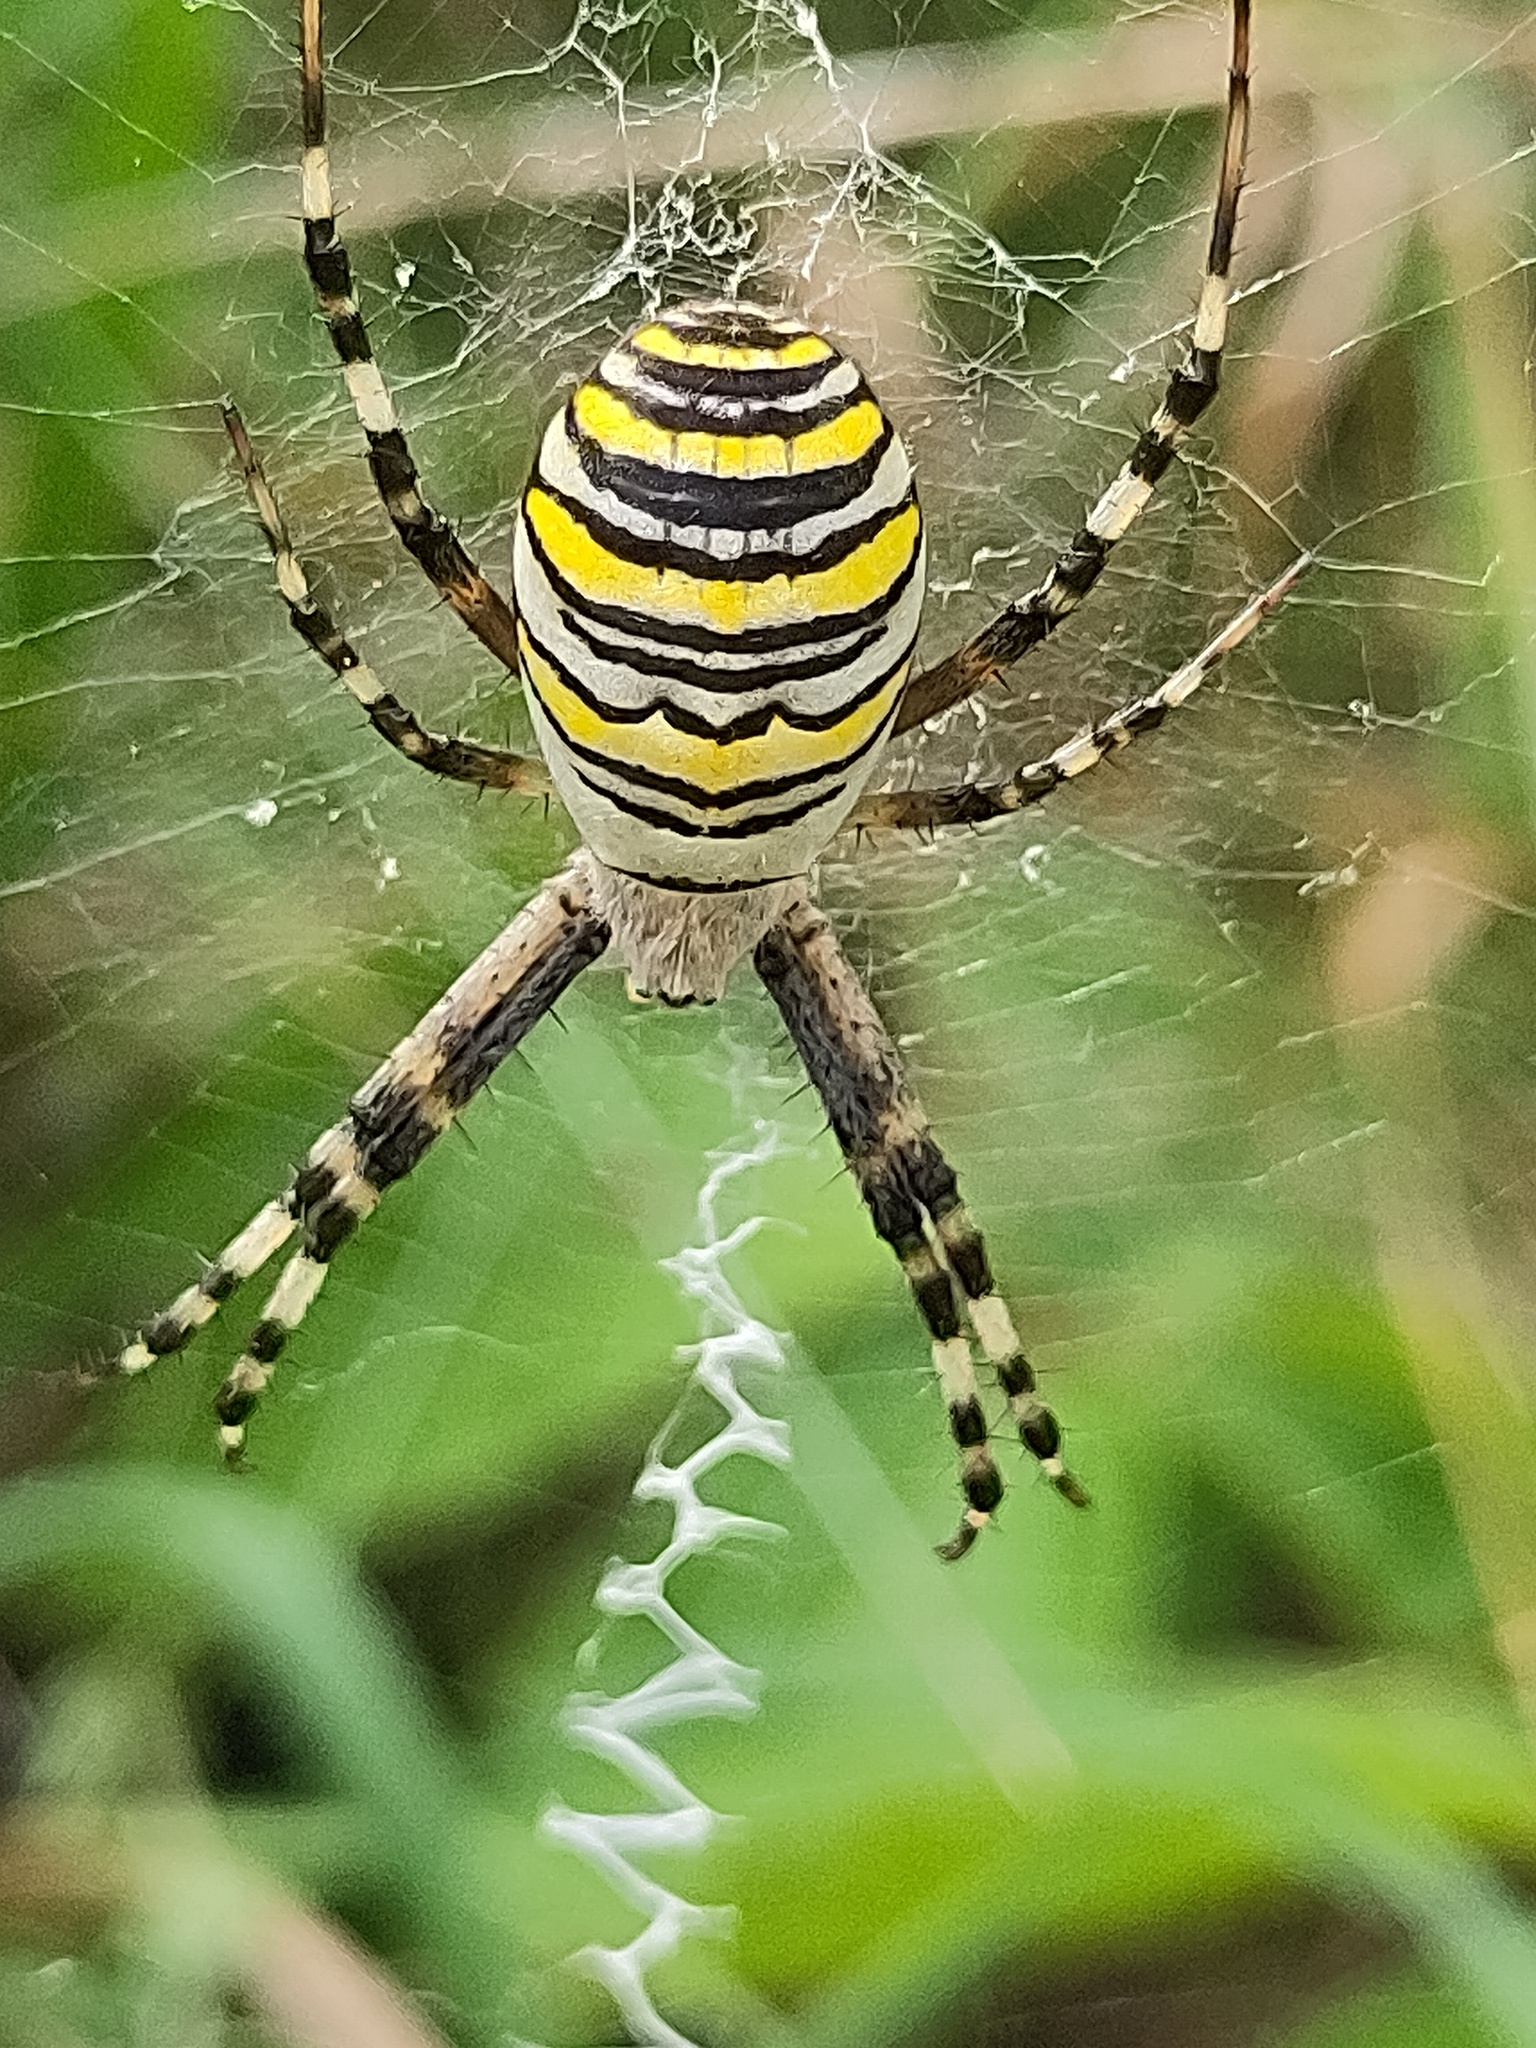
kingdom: Animalia
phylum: Arthropoda
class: Arachnida
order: Araneae
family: Araneidae
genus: Argiope
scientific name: Argiope bruennichi
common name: Wasp spider
